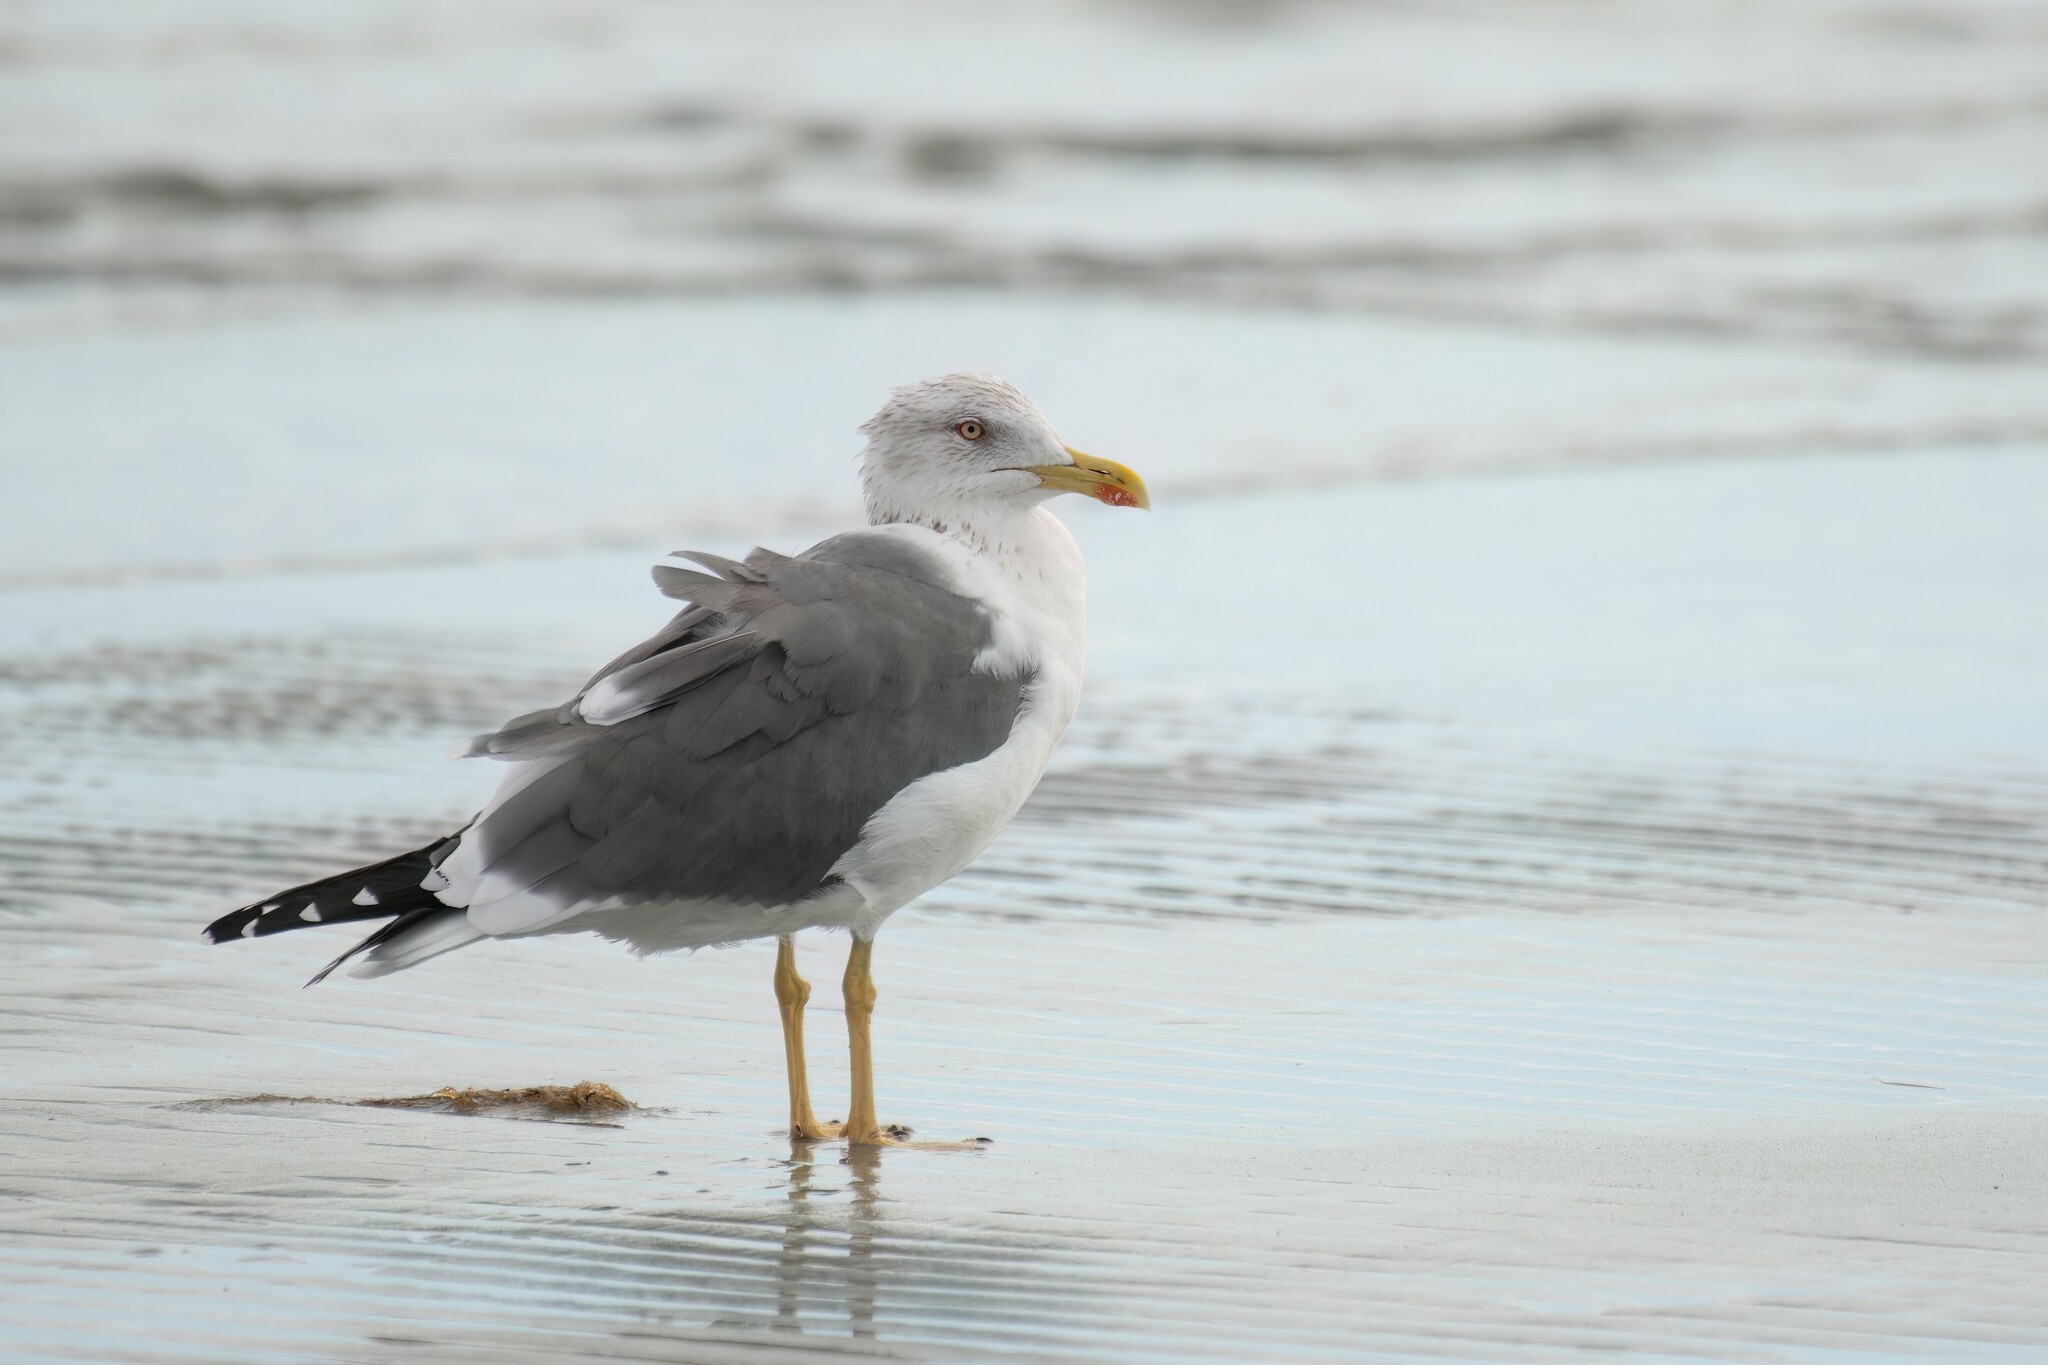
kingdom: Animalia
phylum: Chordata
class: Aves
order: Charadriiformes
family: Laridae
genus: Larus
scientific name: Larus fuscus
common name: Lesser black-backed gull
